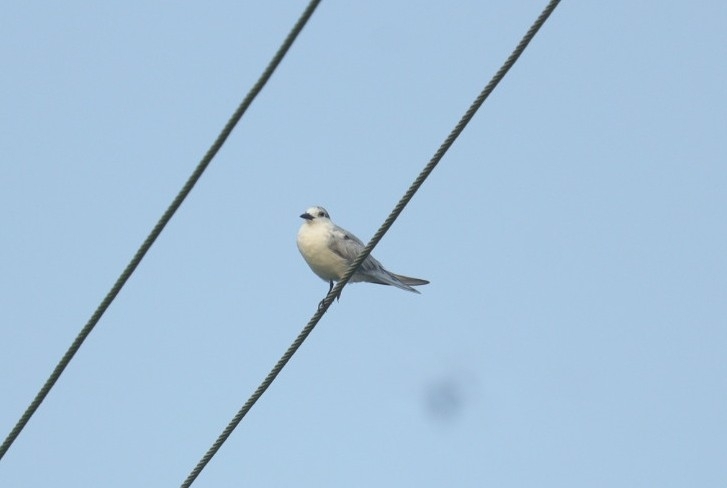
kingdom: Animalia
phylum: Chordata
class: Aves
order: Charadriiformes
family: Laridae
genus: Chlidonias
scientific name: Chlidonias hybrida
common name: Whiskered tern
